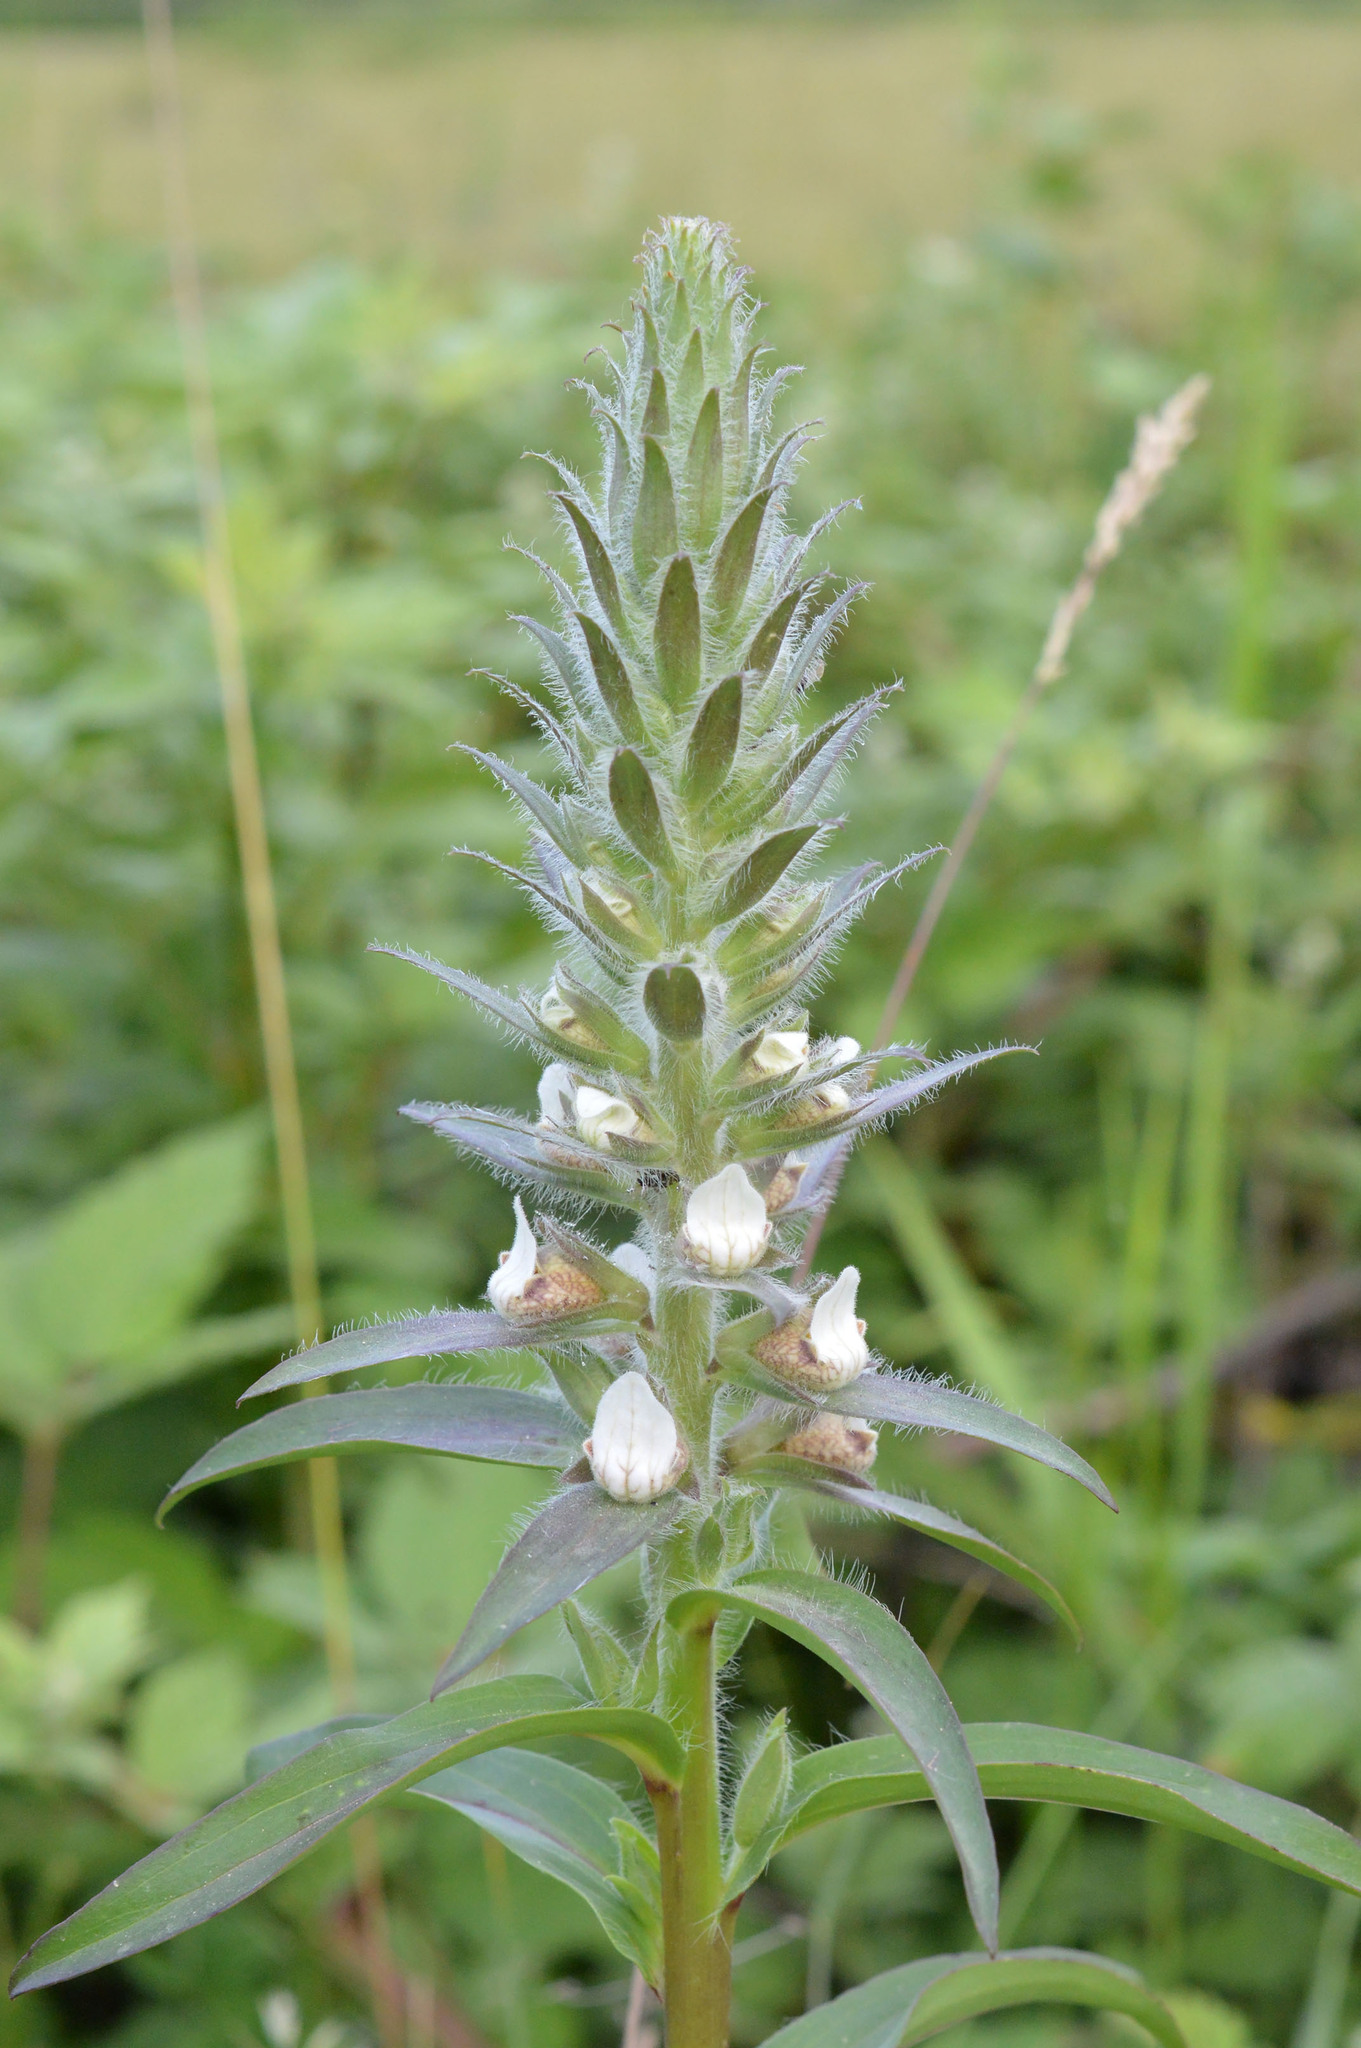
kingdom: Plantae
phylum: Tracheophyta
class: Magnoliopsida
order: Lamiales
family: Plantaginaceae
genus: Digitalis
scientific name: Digitalis lanata
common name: Grecian foxglove
